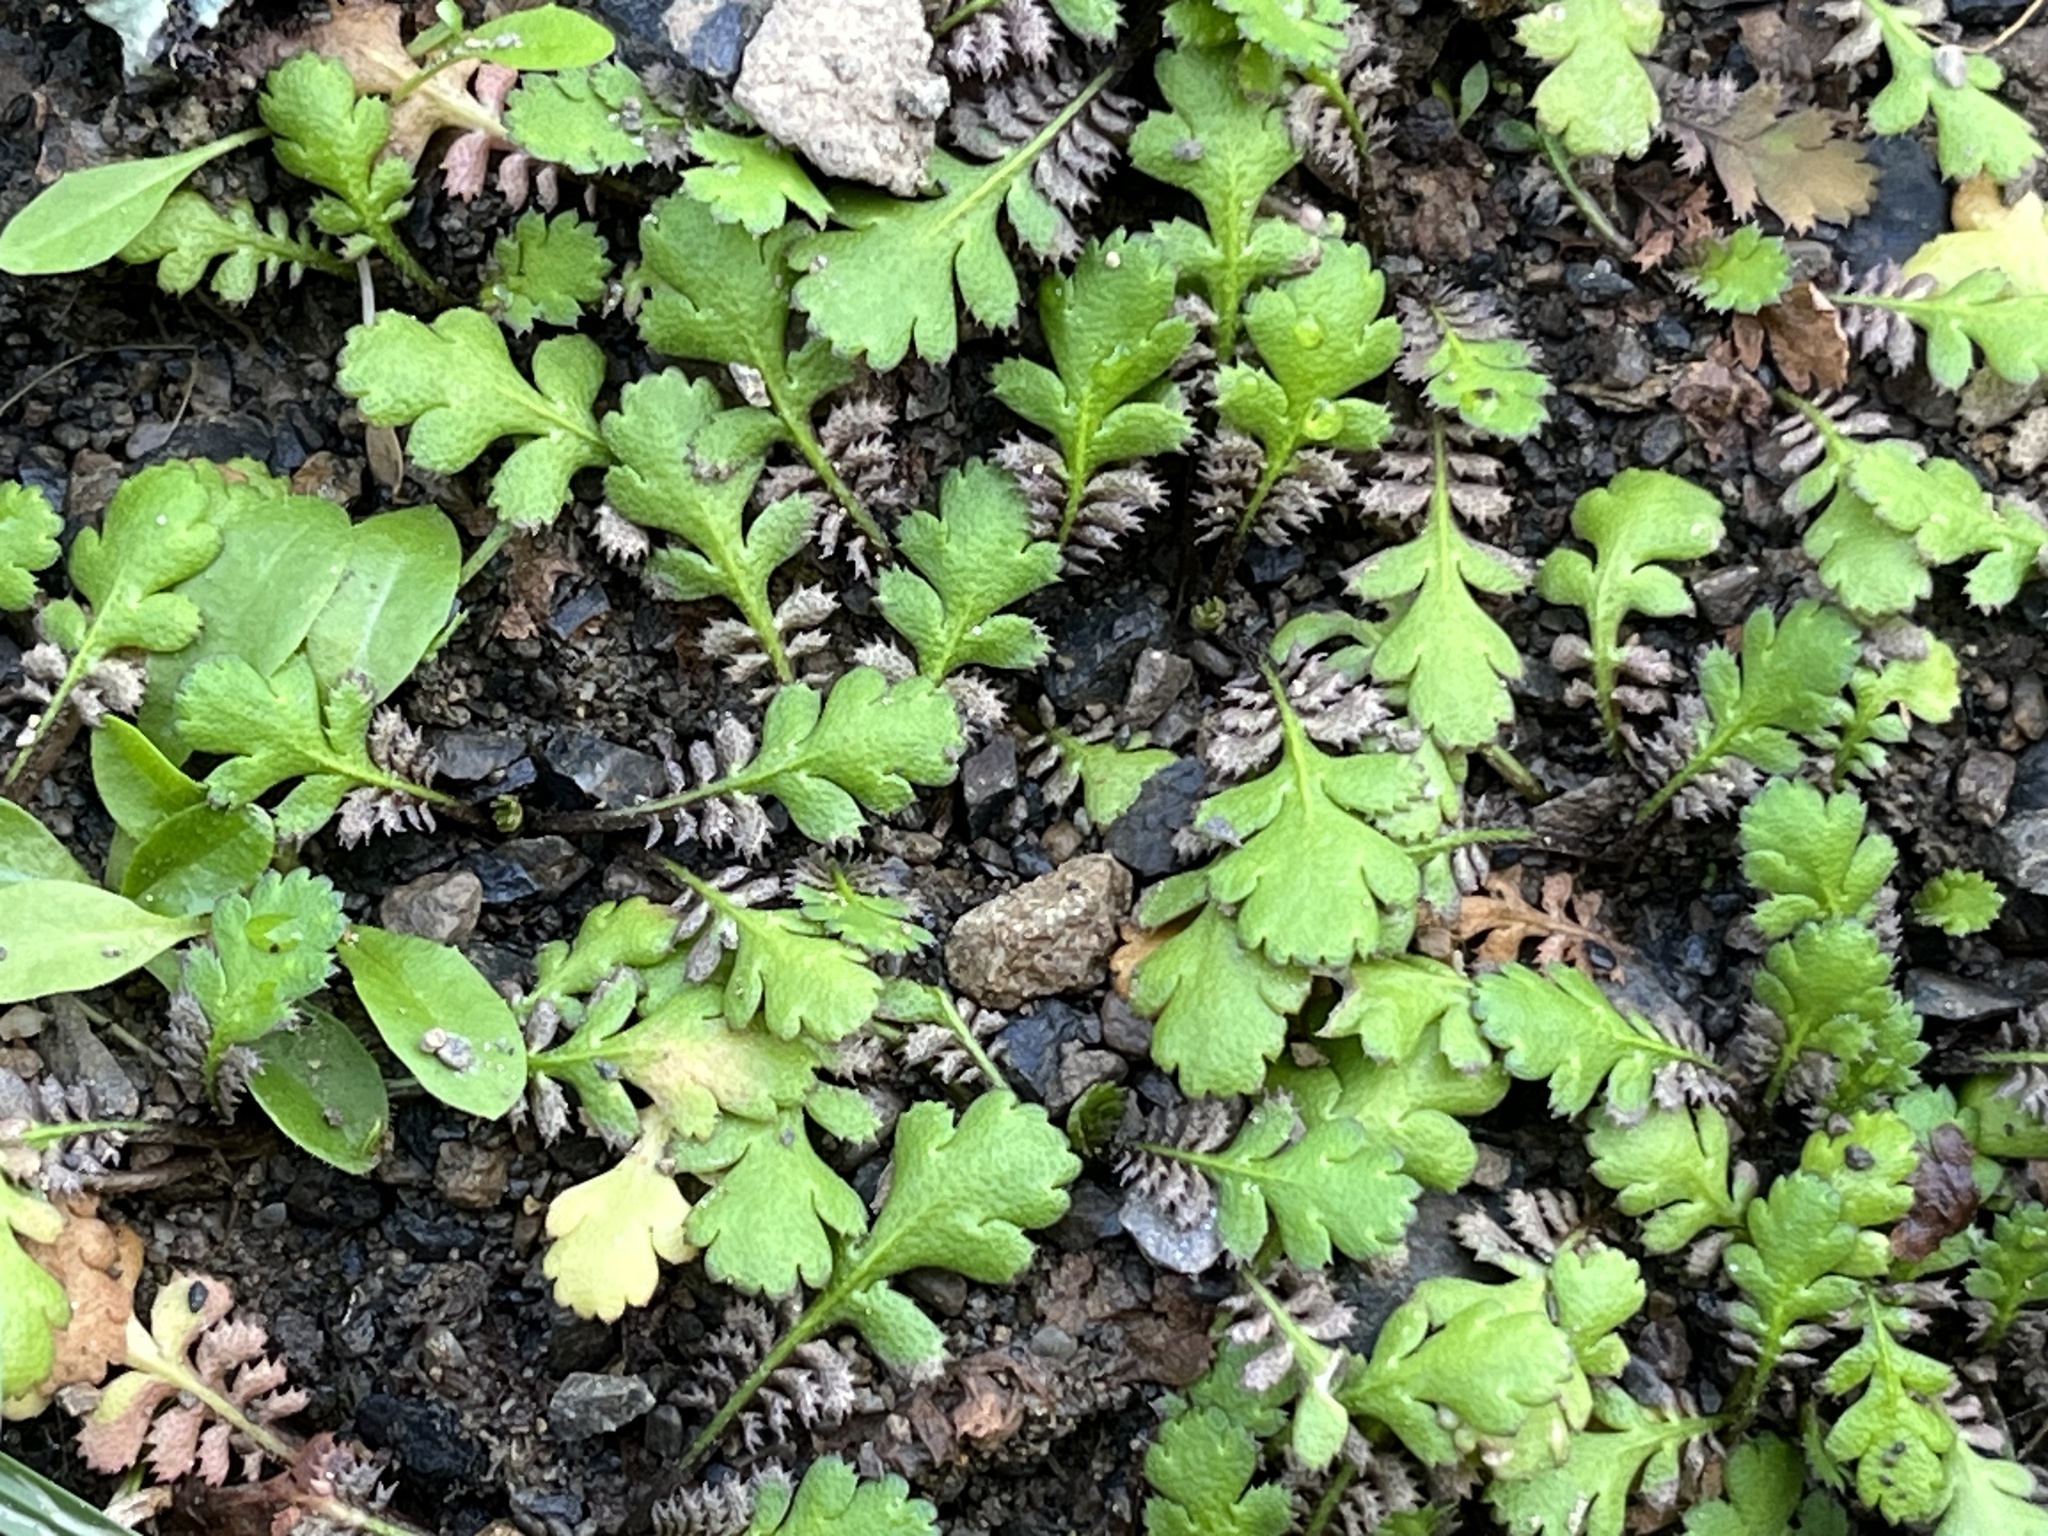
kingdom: Plantae
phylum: Tracheophyta
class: Magnoliopsida
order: Asterales
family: Asteraceae
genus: Leptinella
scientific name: Leptinella squalida
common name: New zealand brass-buttons
